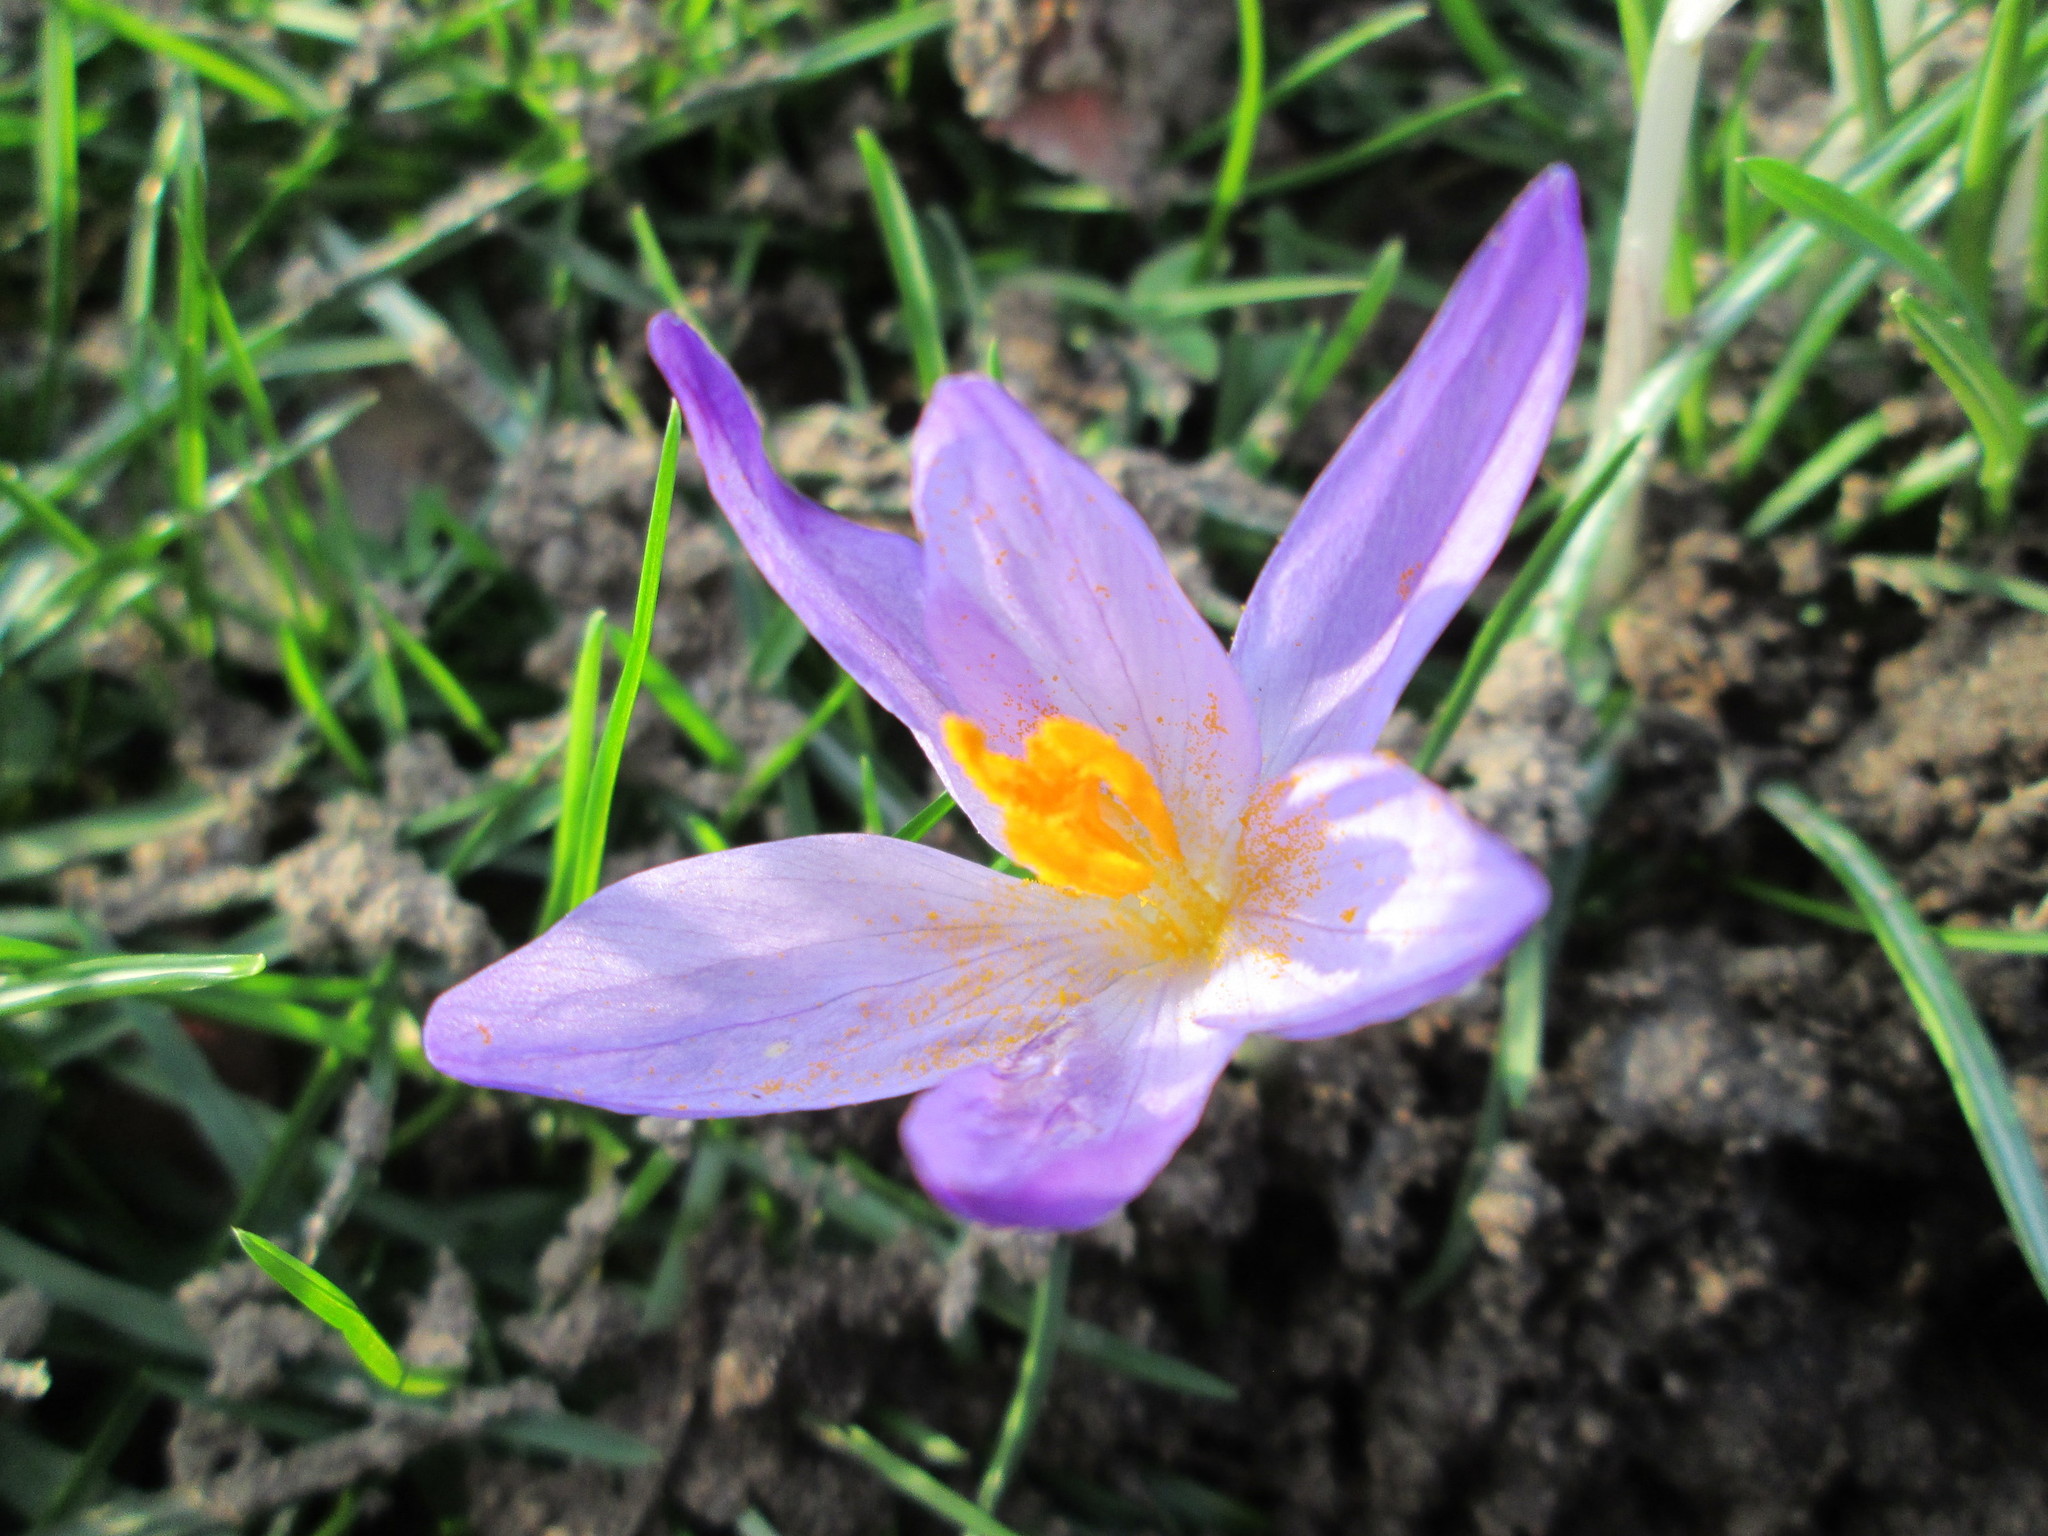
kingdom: Plantae
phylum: Tracheophyta
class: Liliopsida
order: Asparagales
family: Iridaceae
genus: Crocus
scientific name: Crocus tommasinianus
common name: Early crocus
